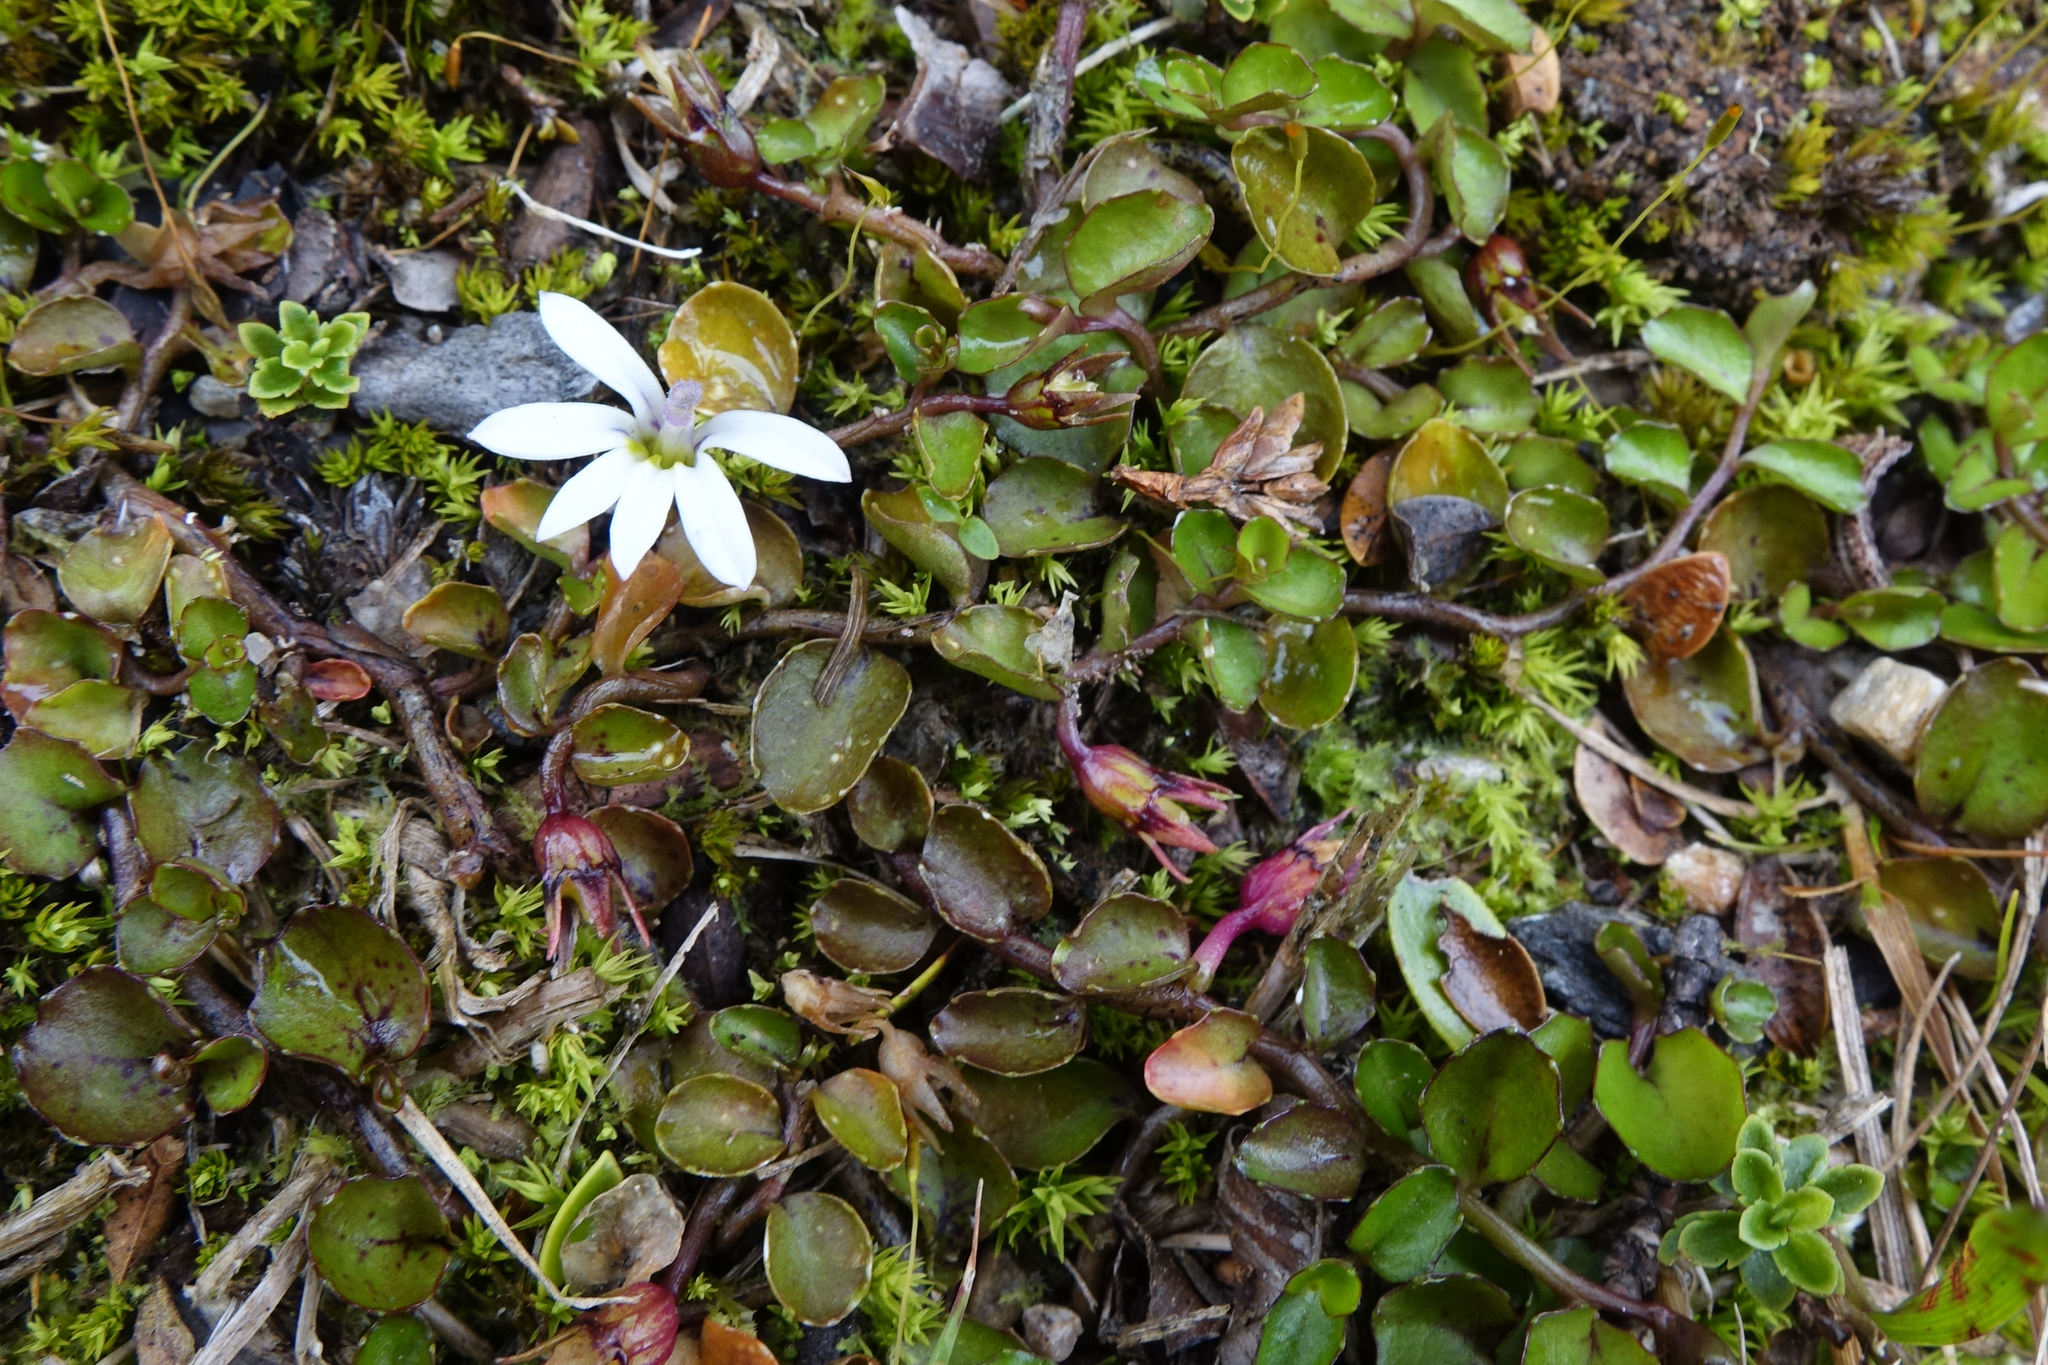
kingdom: Plantae
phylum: Tracheophyta
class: Magnoliopsida
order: Asterales
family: Campanulaceae
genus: Lobelia
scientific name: Lobelia angulata
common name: Lawn lobelia
